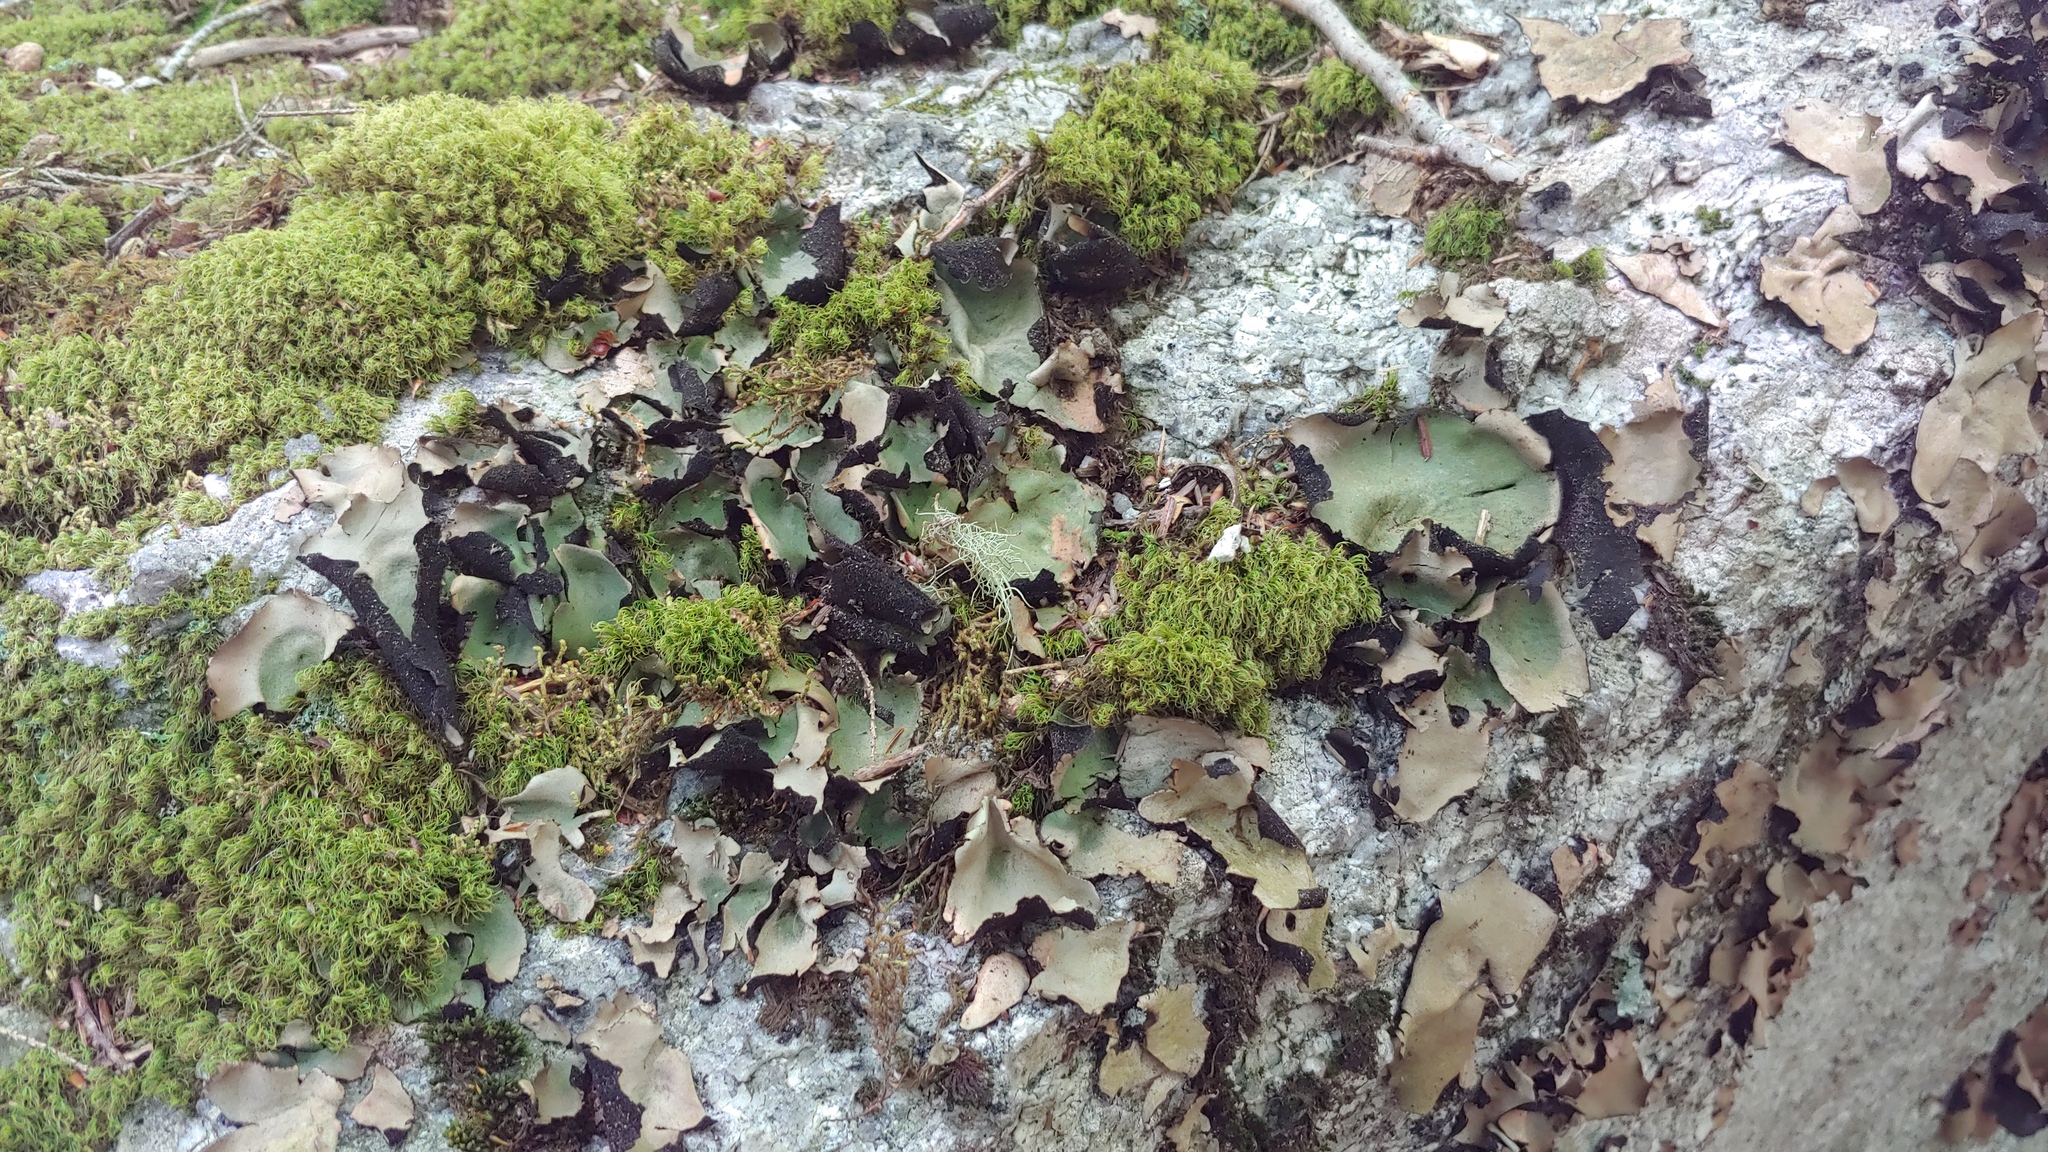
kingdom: Fungi
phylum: Ascomycota
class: Lecanoromycetes
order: Umbilicariales
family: Umbilicariaceae
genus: Umbilicaria
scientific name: Umbilicaria mammulata
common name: Smooth rock tripe
